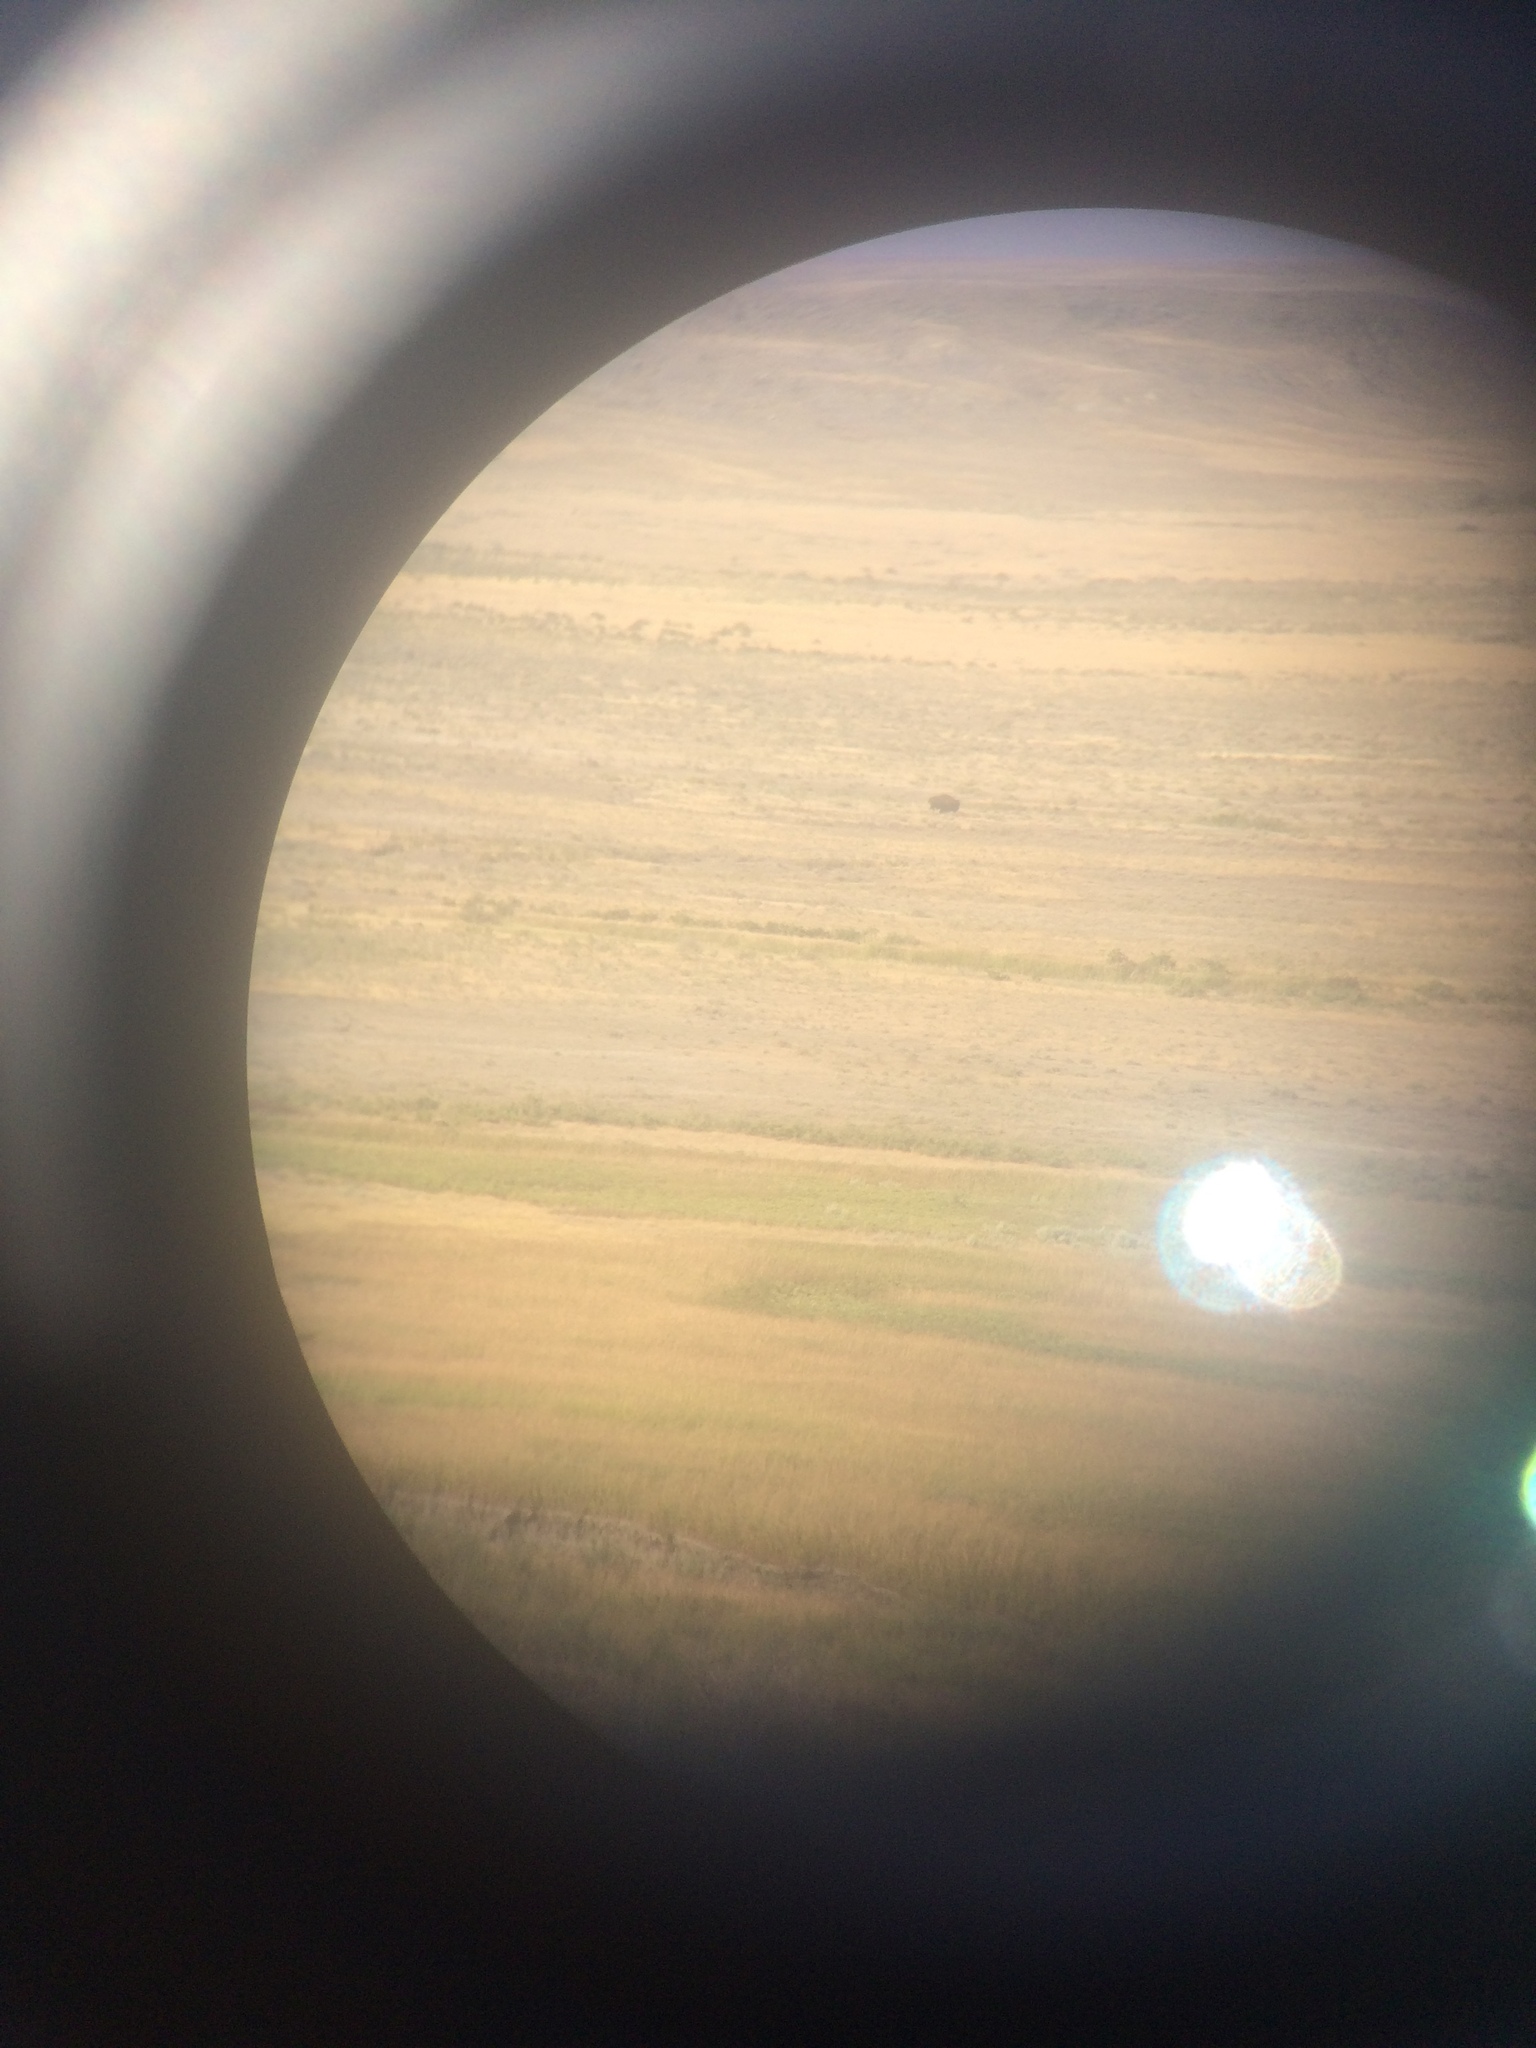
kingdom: Animalia
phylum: Chordata
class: Mammalia
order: Artiodactyla
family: Bovidae
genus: Bison
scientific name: Bison bison
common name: American bison
